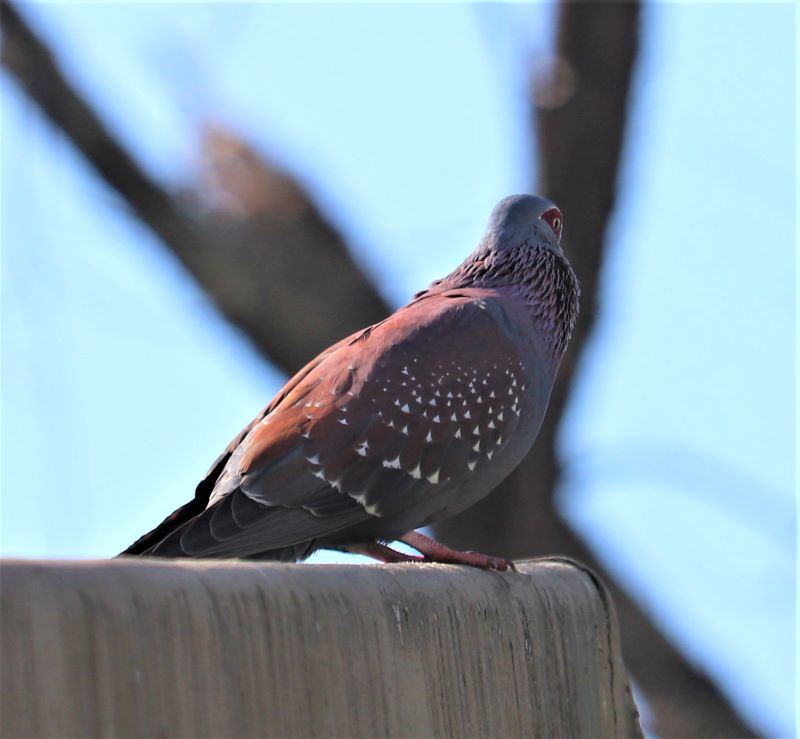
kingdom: Animalia
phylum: Chordata
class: Aves
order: Columbiformes
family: Columbidae
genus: Columba
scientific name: Columba guinea
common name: Speckled pigeon
